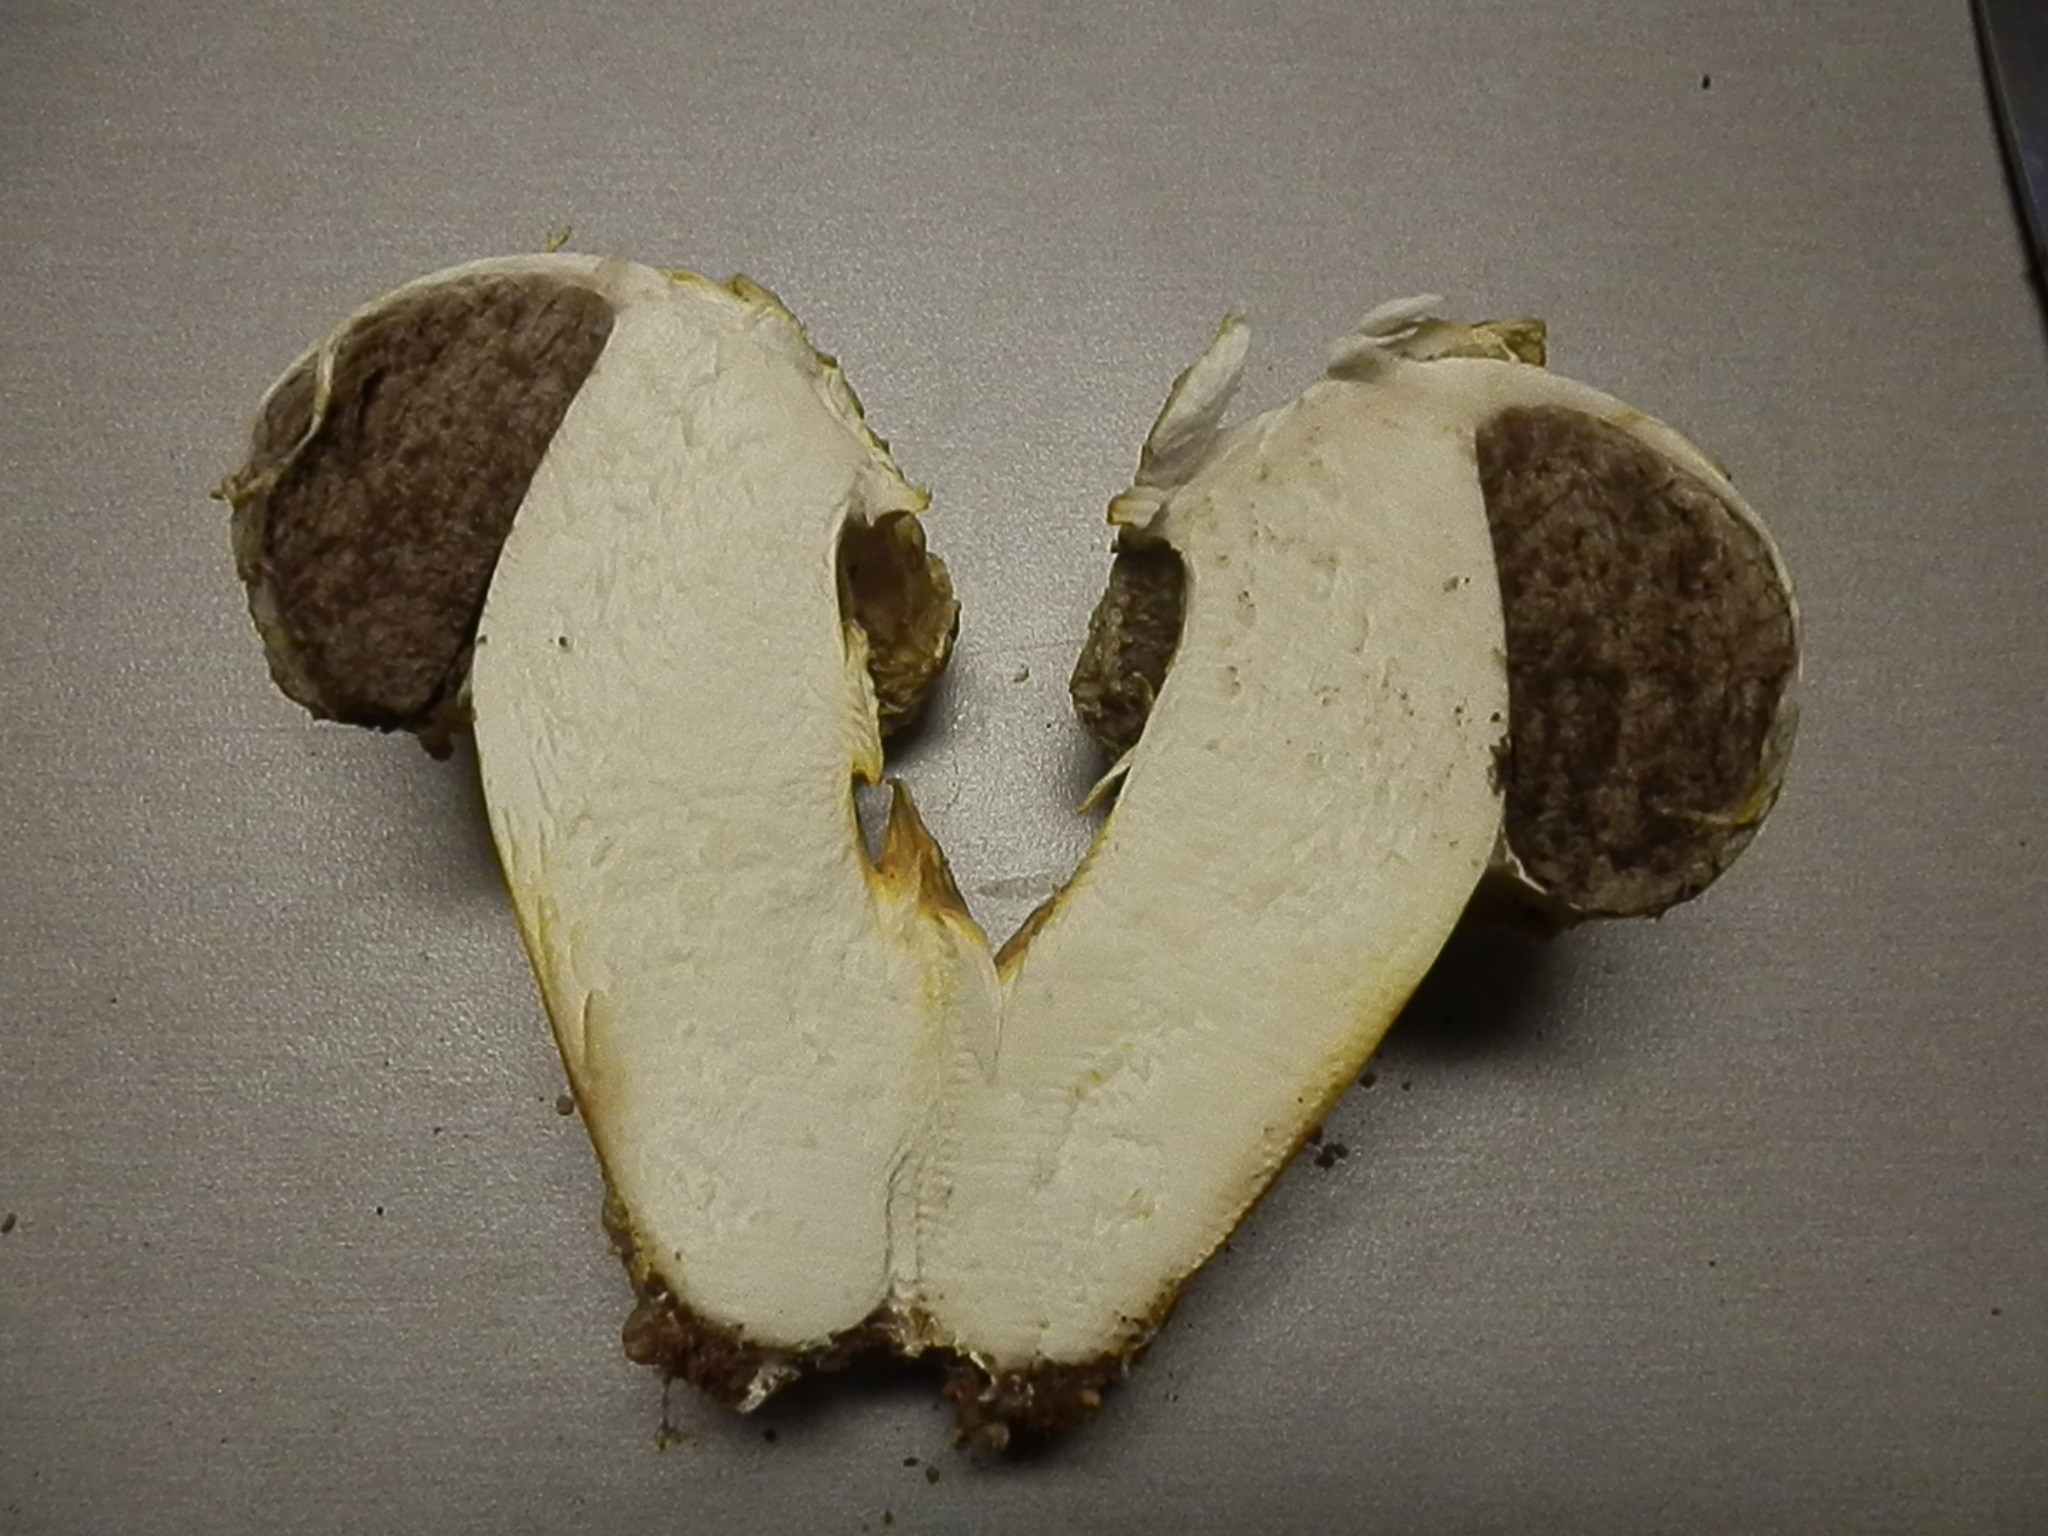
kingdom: Fungi
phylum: Basidiomycota
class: Agaricomycetes
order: Agaricales
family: Agaricaceae
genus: Agaricus
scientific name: Agaricus evertens
